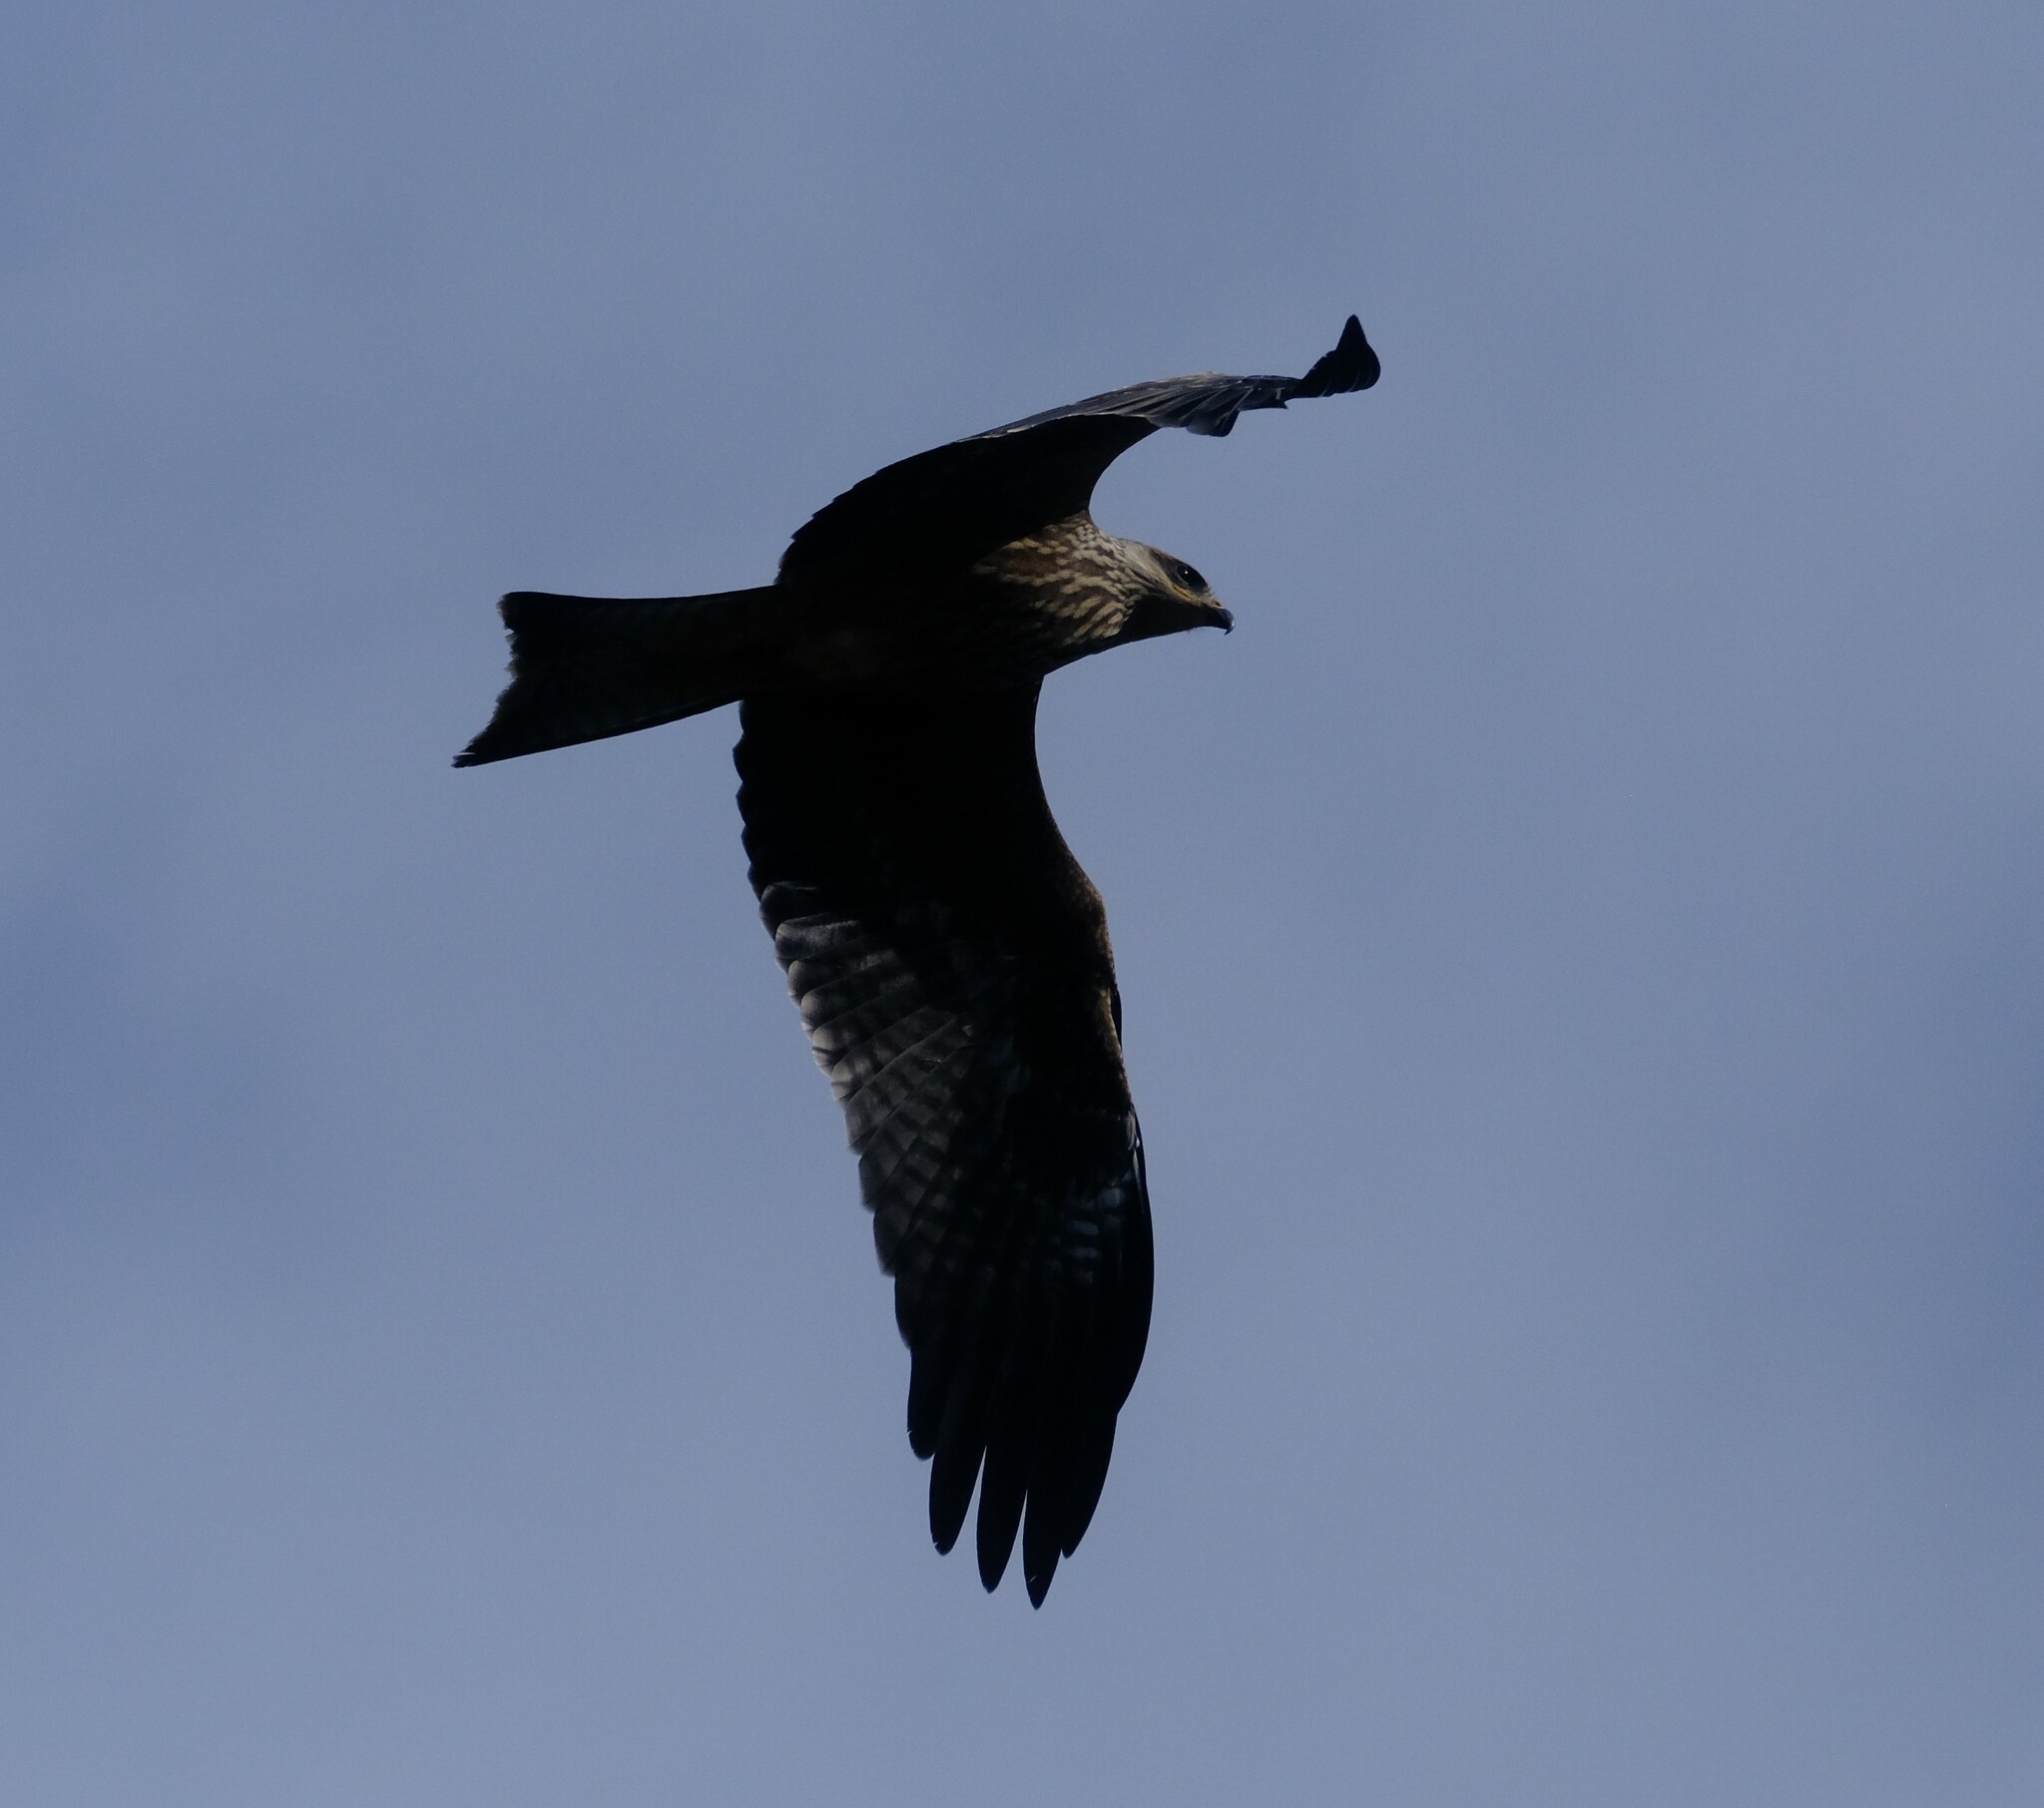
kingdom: Animalia
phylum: Chordata
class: Aves
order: Accipitriformes
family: Accipitridae
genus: Milvus
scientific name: Milvus migrans
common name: Black kite
